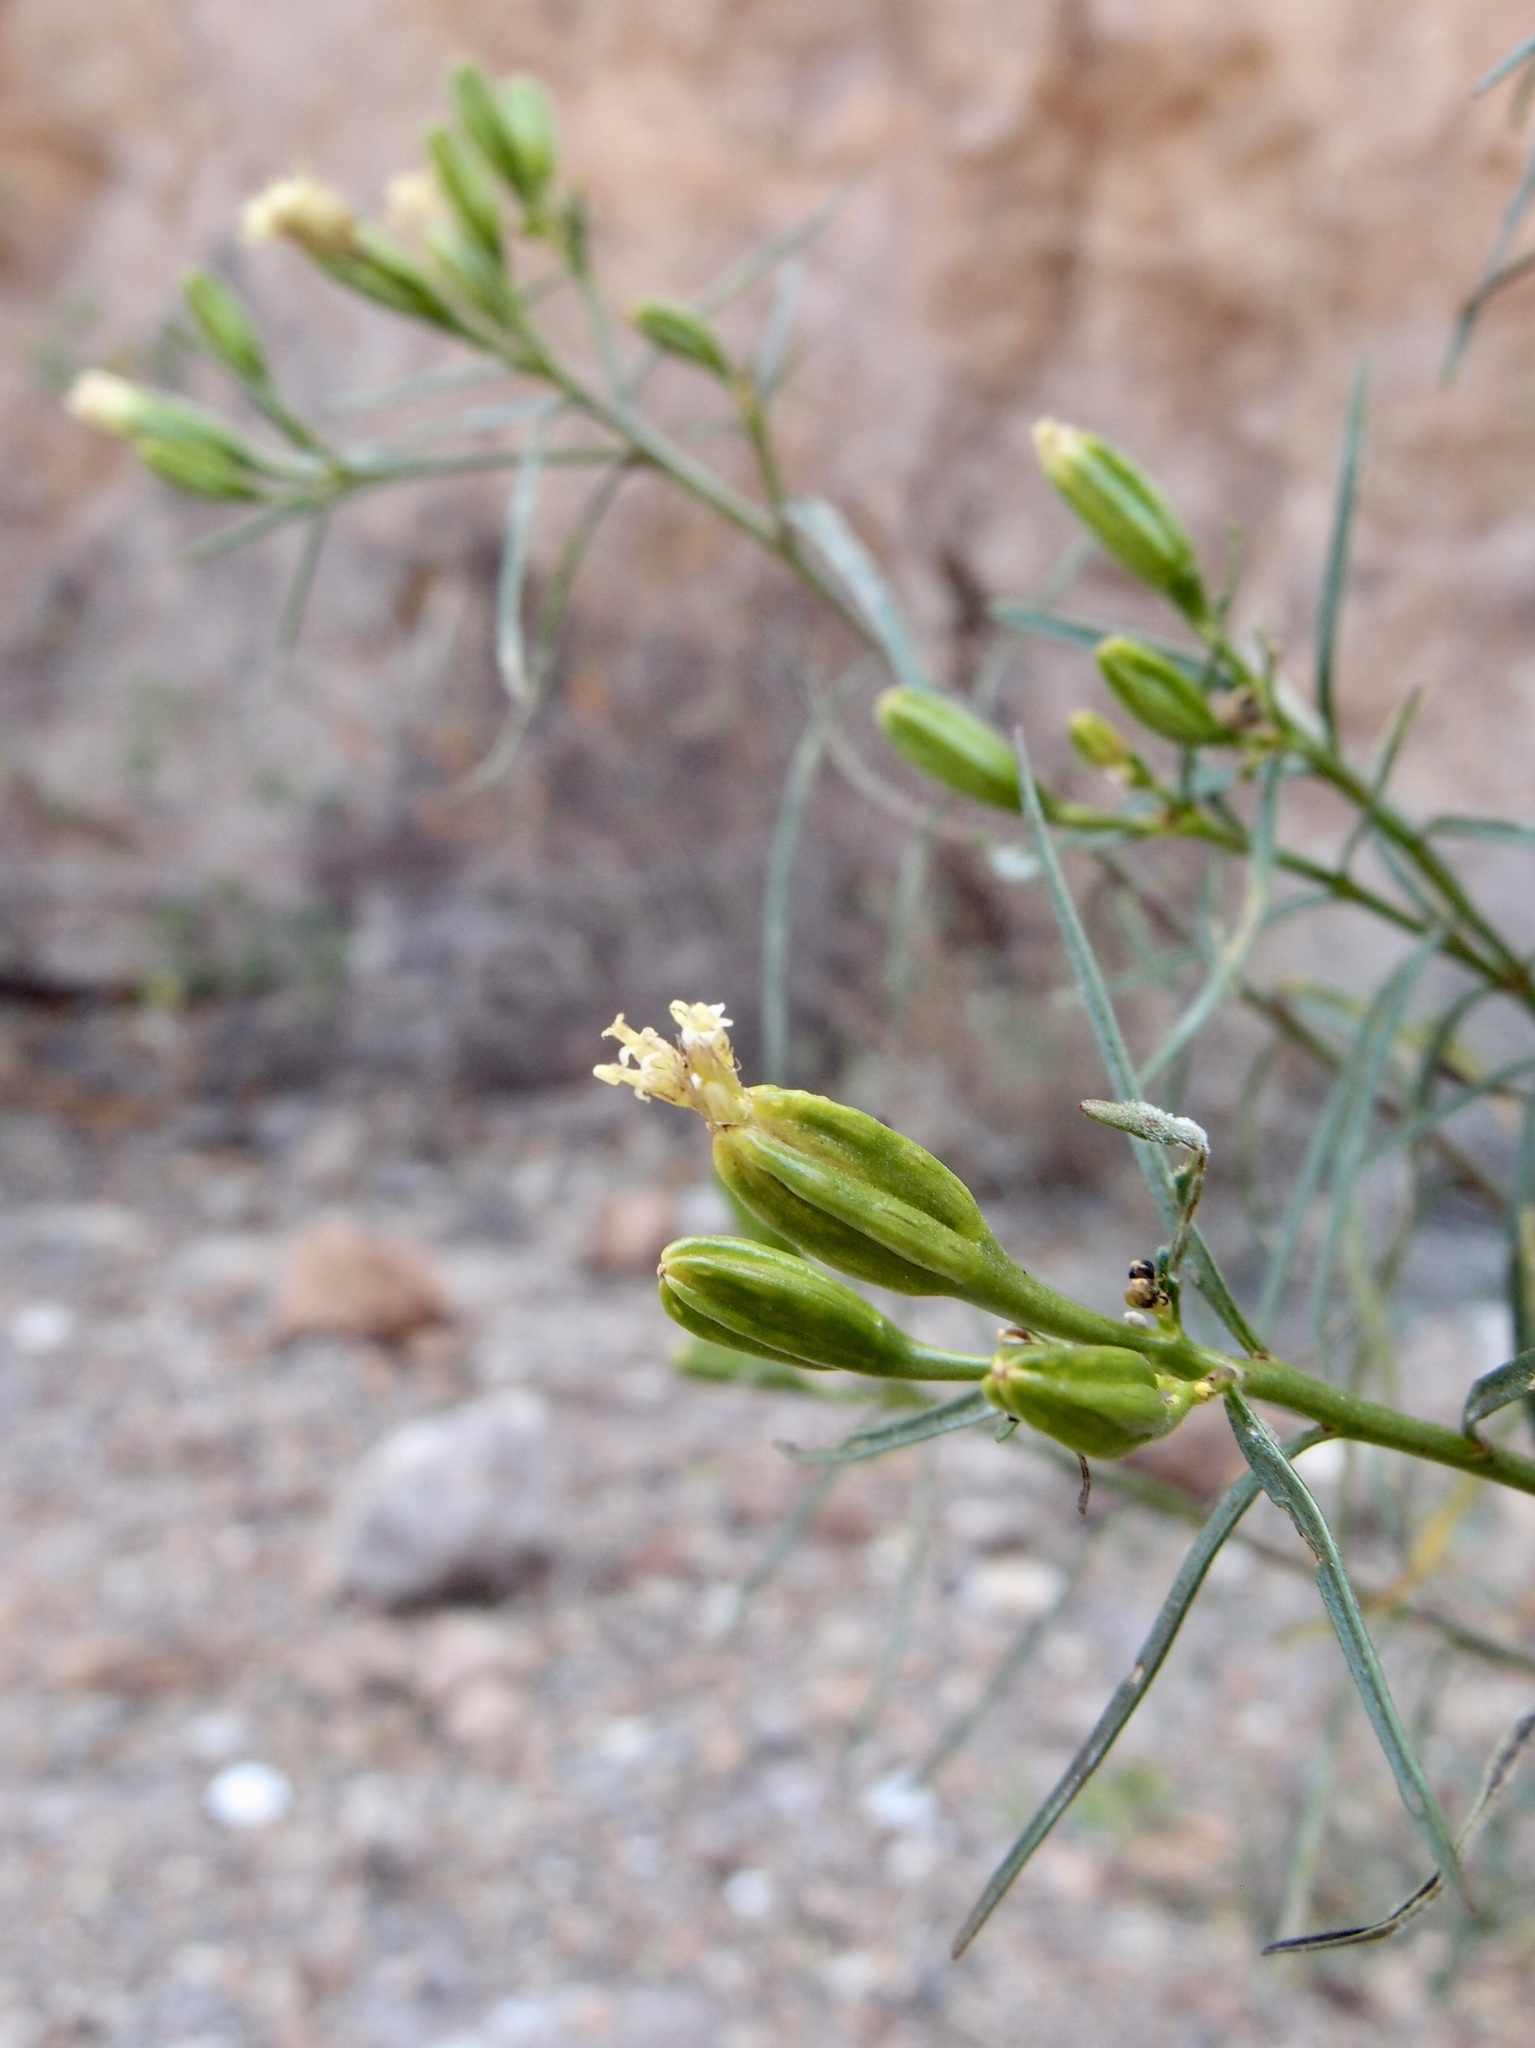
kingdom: Plantae
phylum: Tracheophyta
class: Magnoliopsida
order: Asterales
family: Asteraceae
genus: Porophyllum
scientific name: Porophyllum pausodynum
